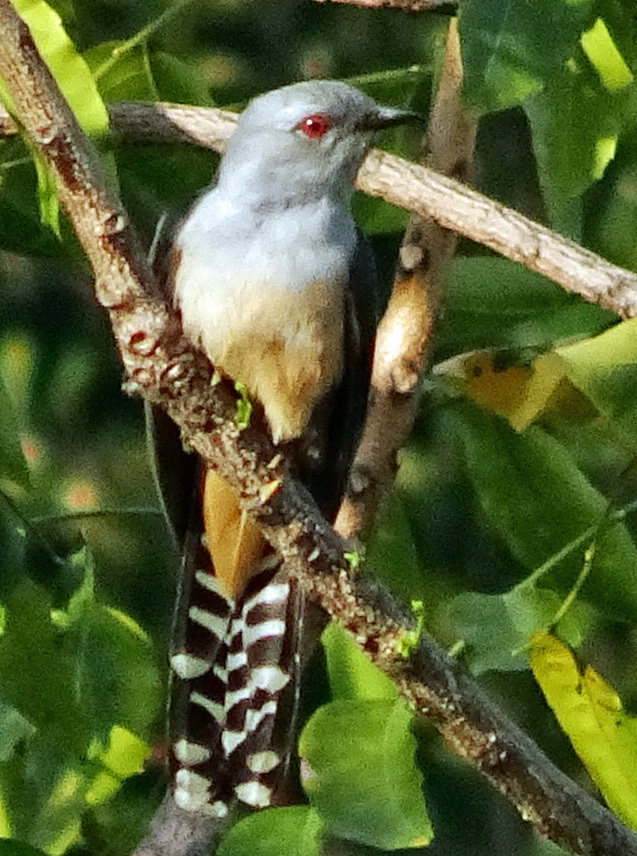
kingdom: Animalia
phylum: Chordata
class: Aves
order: Cuculiformes
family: Cuculidae
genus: Cacomantis
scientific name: Cacomantis merulinus
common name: Plaintive cuckoo
